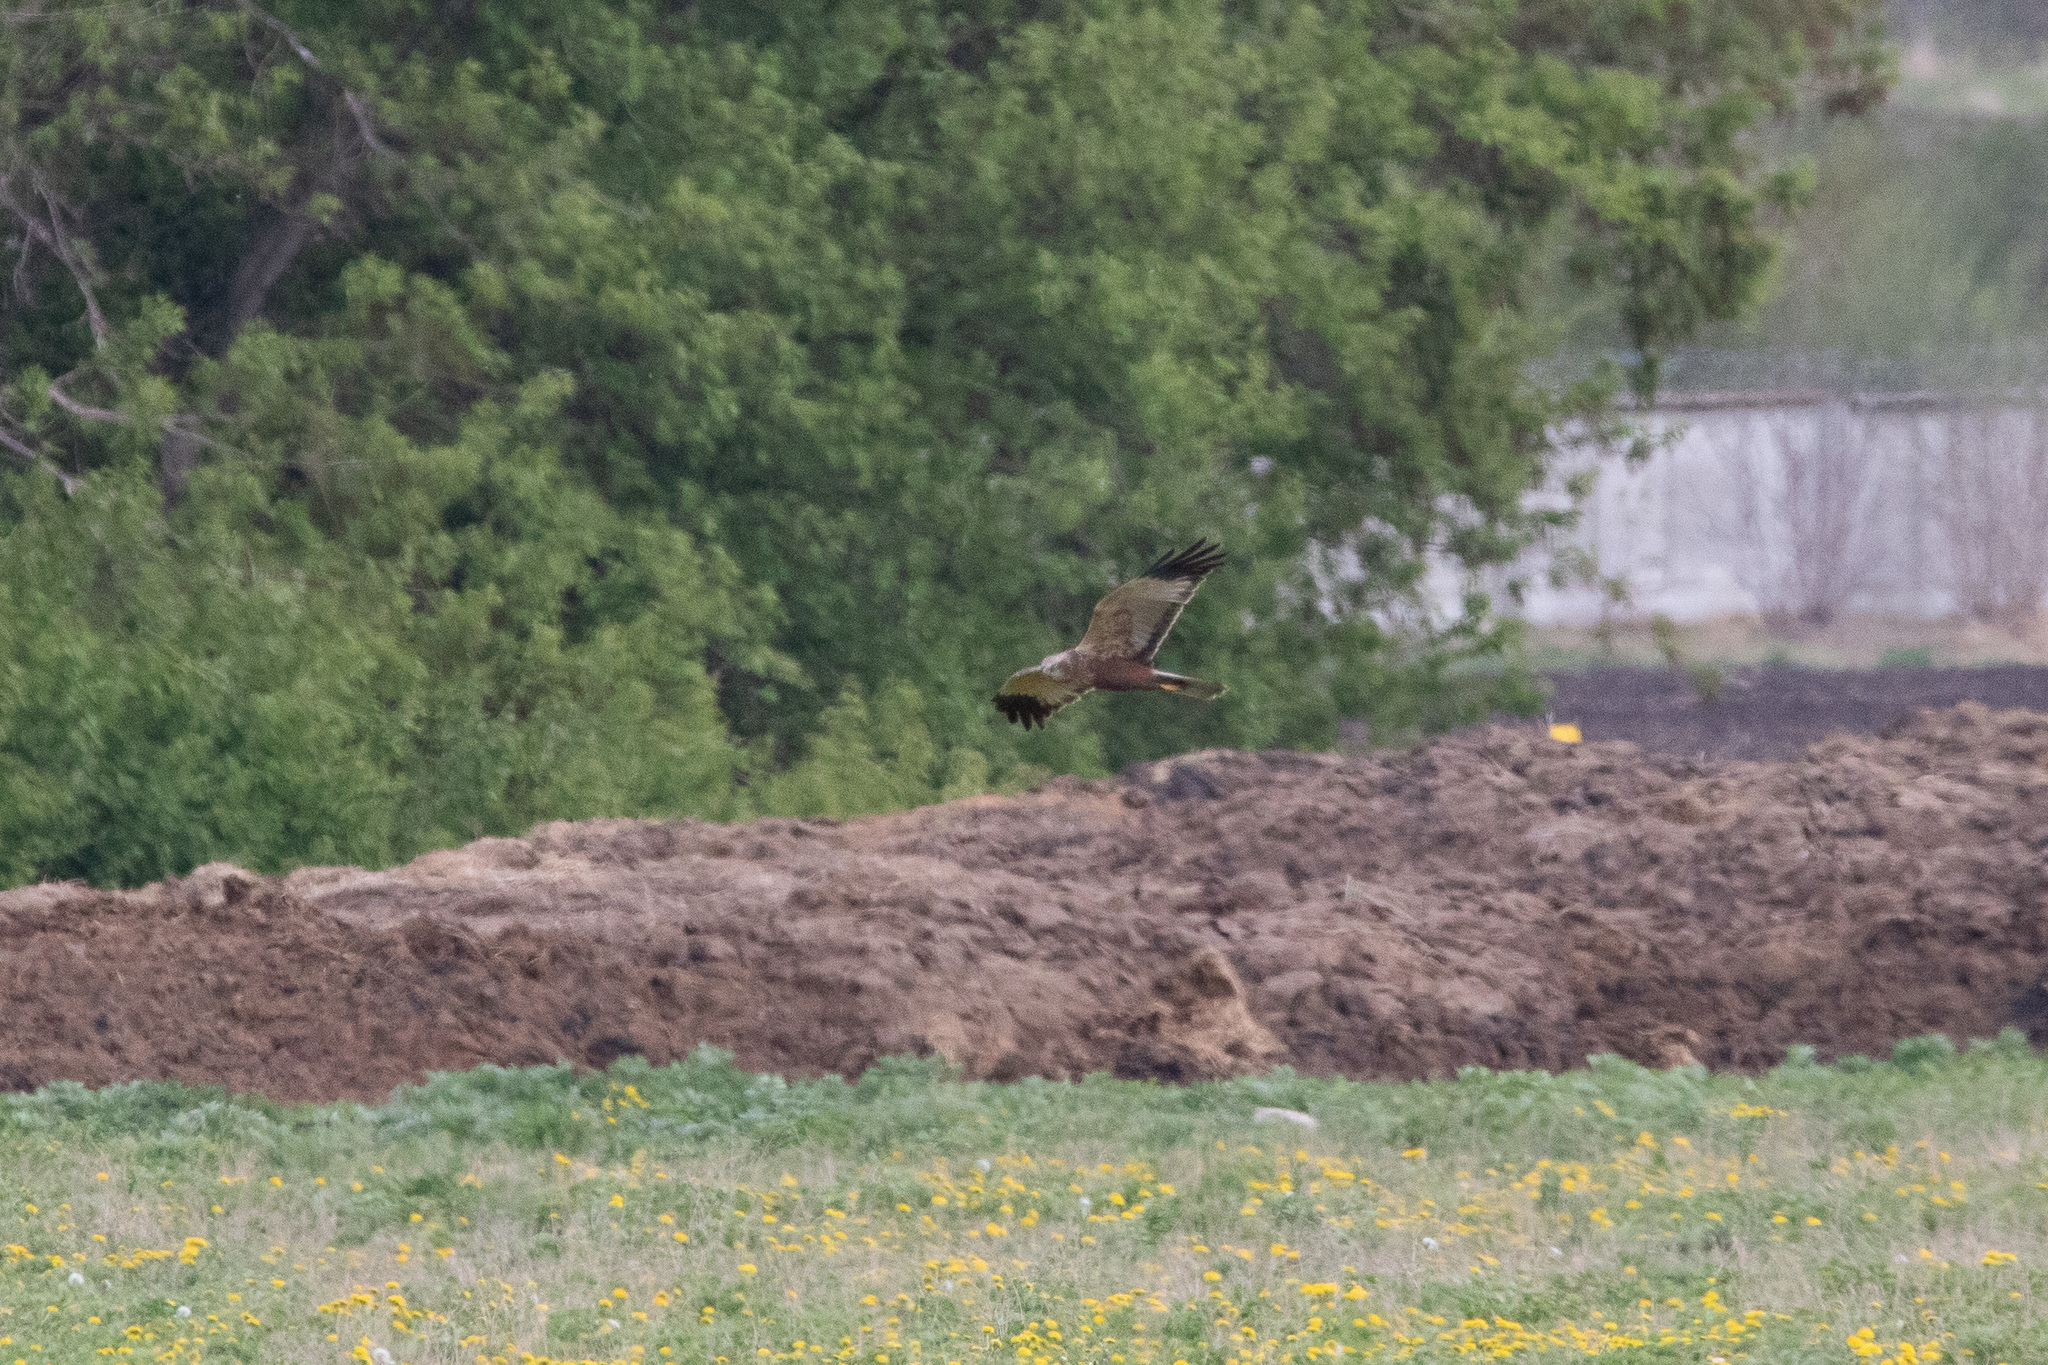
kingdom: Animalia
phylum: Chordata
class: Aves
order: Accipitriformes
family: Accipitridae
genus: Circus
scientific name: Circus aeruginosus
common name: Western marsh harrier
